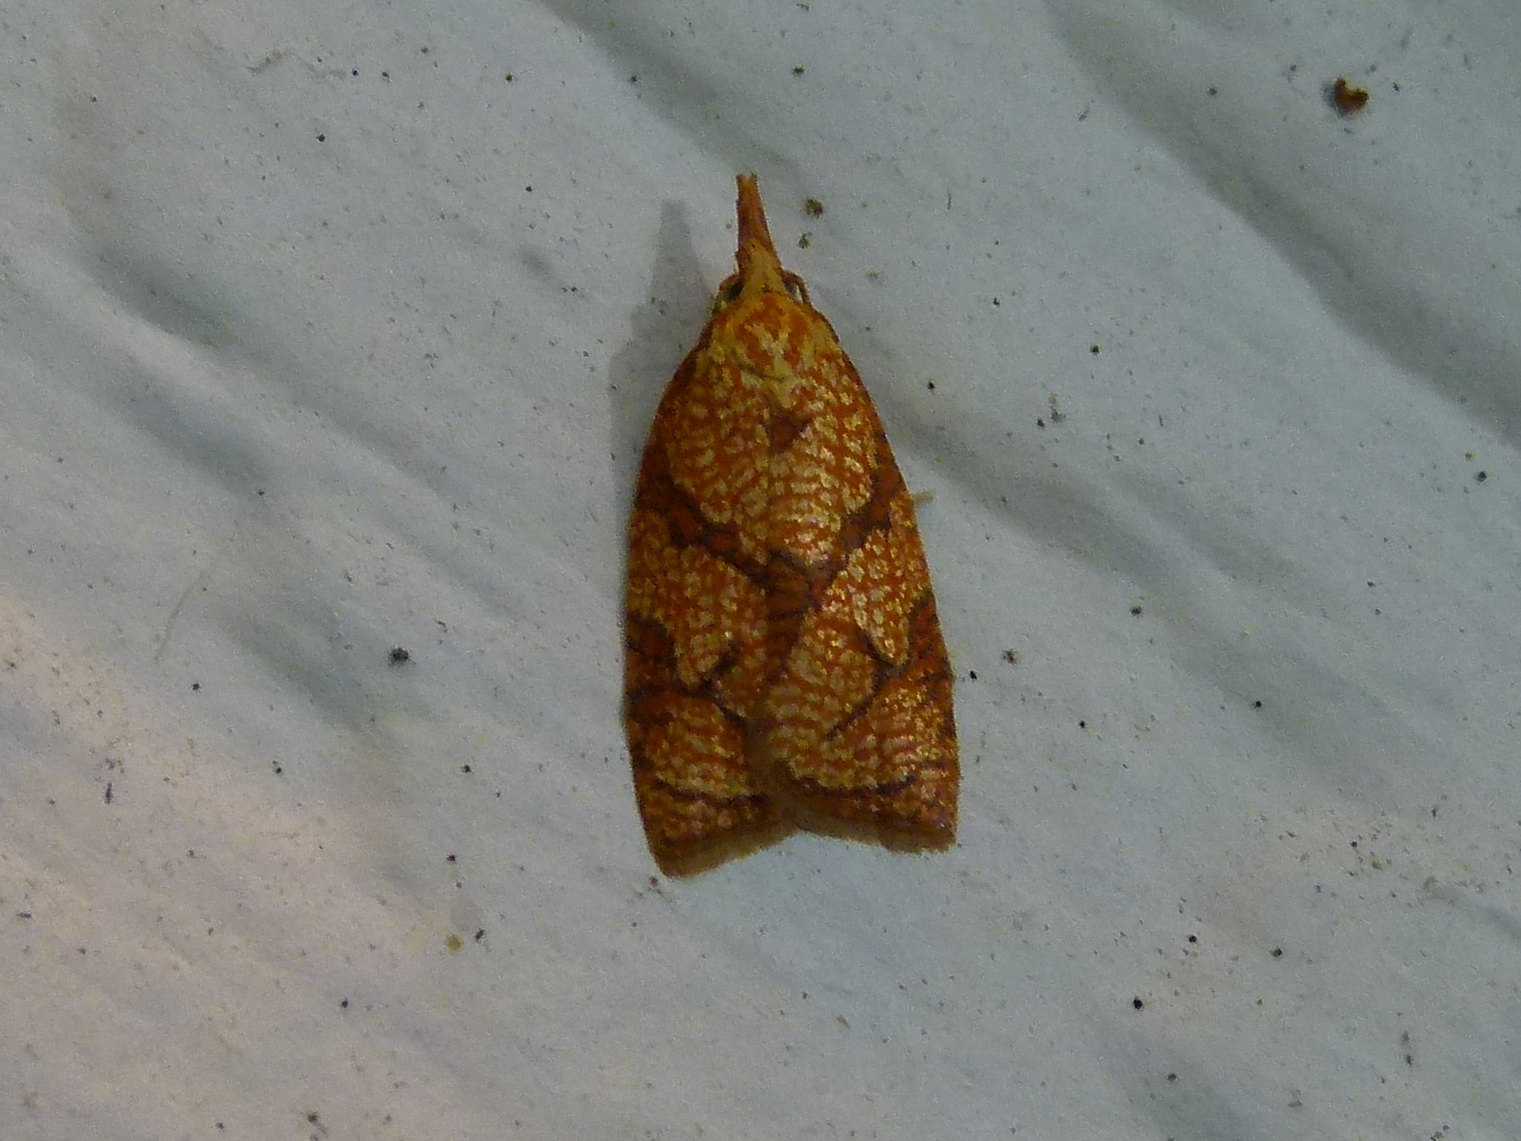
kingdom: Animalia
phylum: Arthropoda
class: Insecta
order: Lepidoptera
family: Tortricidae
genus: Cenopis
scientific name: Cenopis reticulatana
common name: Reticulated fruitworm moth
